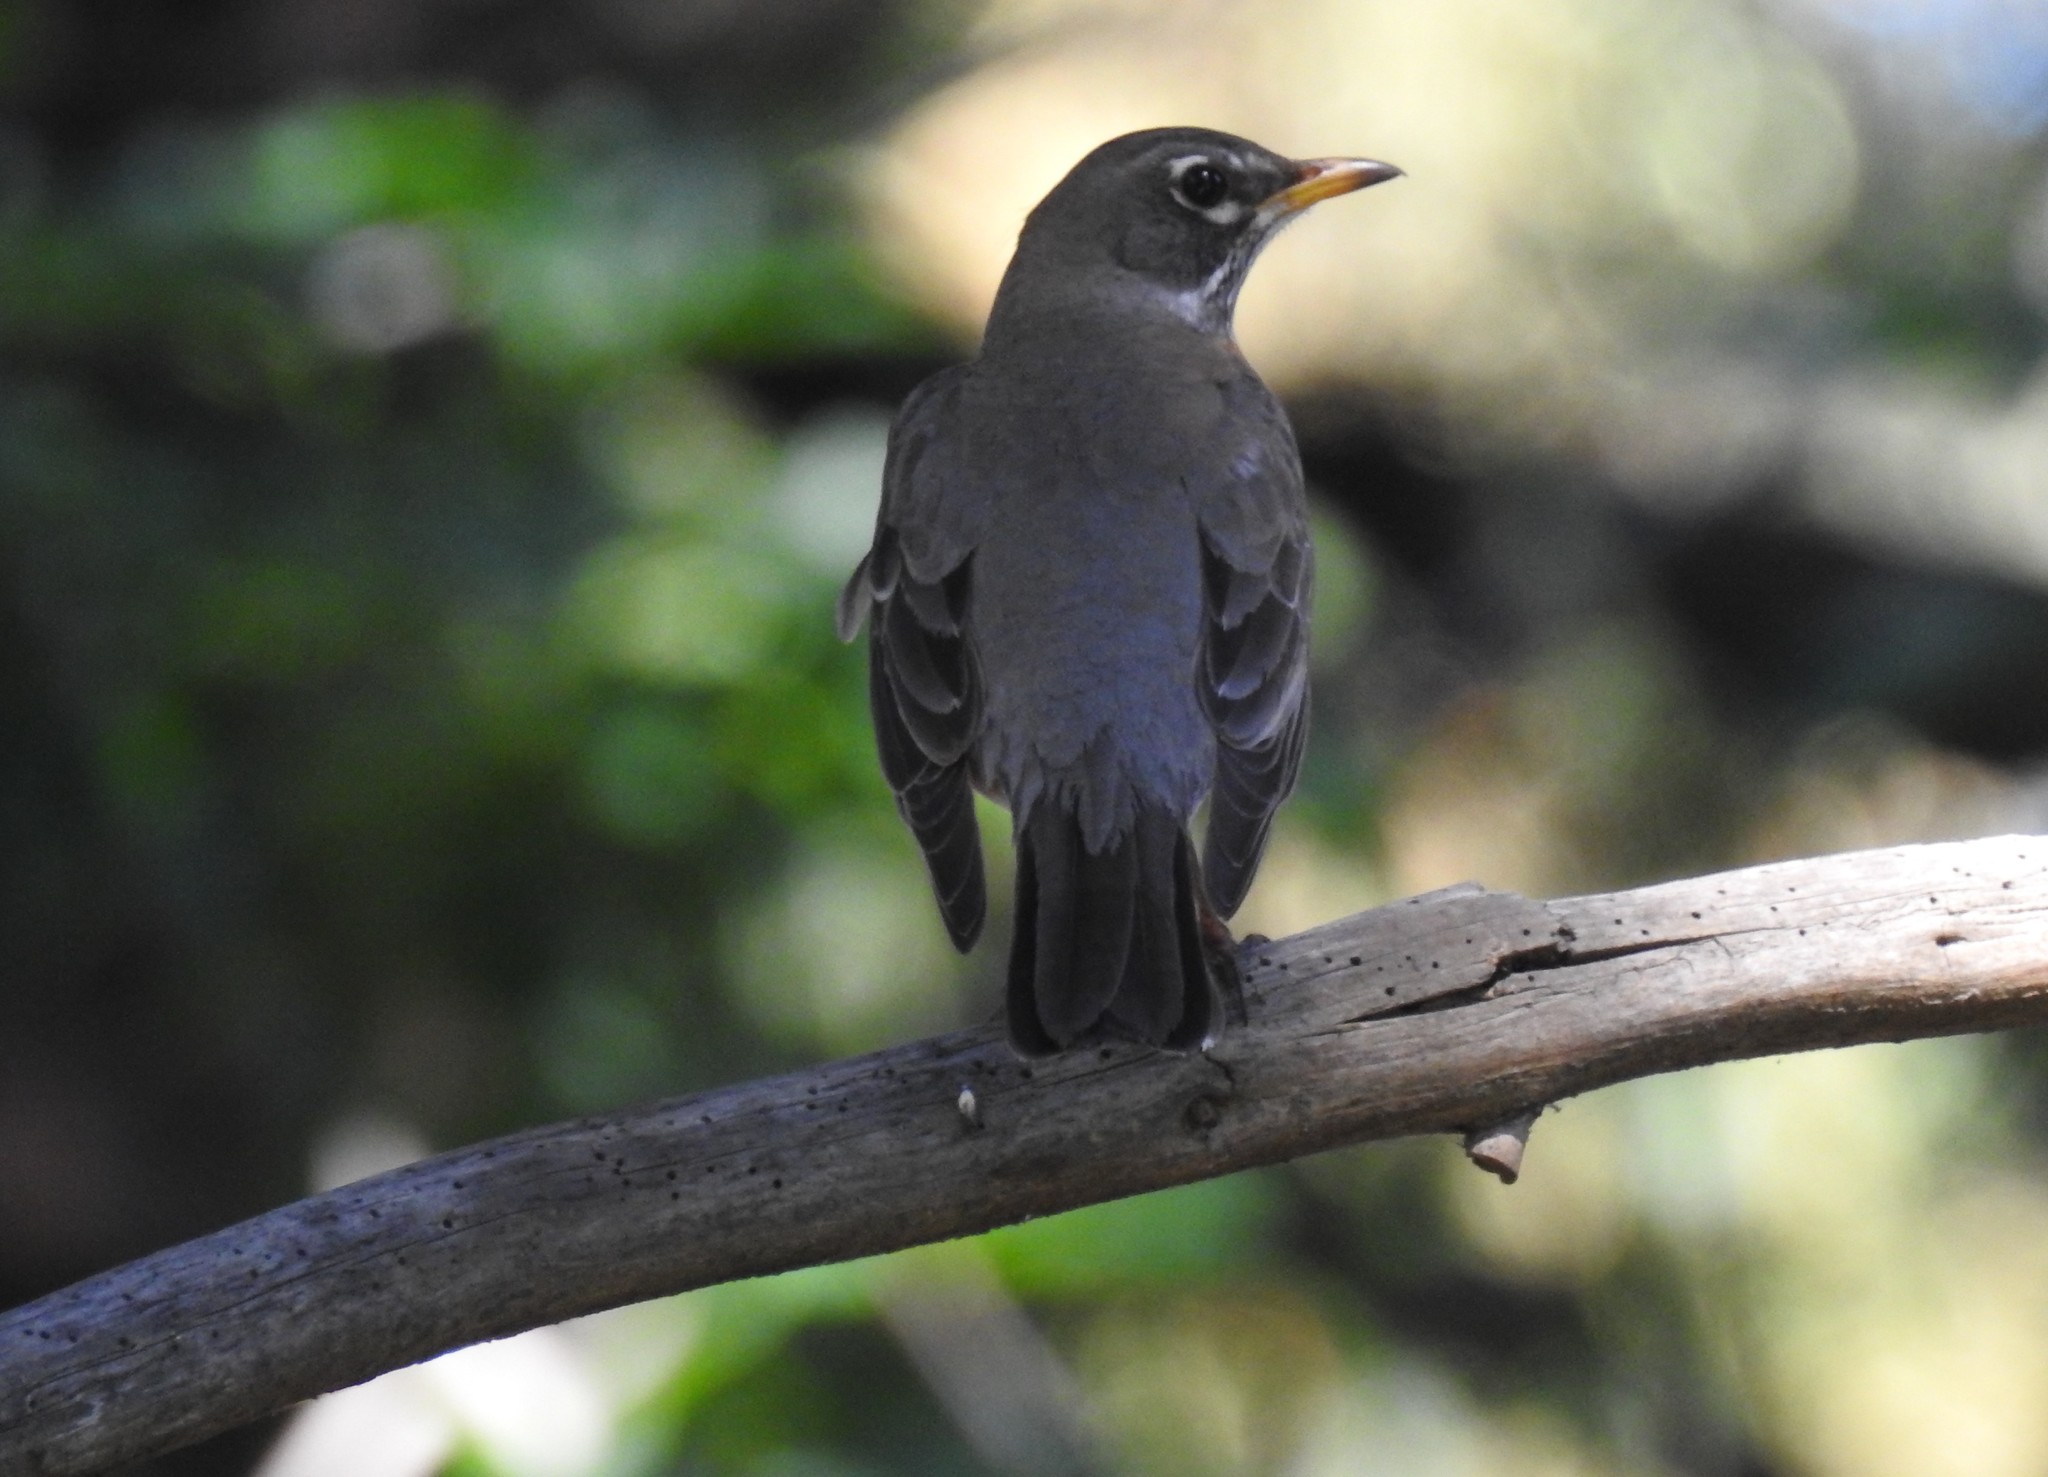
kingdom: Animalia
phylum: Chordata
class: Aves
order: Passeriformes
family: Turdidae
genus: Turdus
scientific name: Turdus migratorius
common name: American robin
